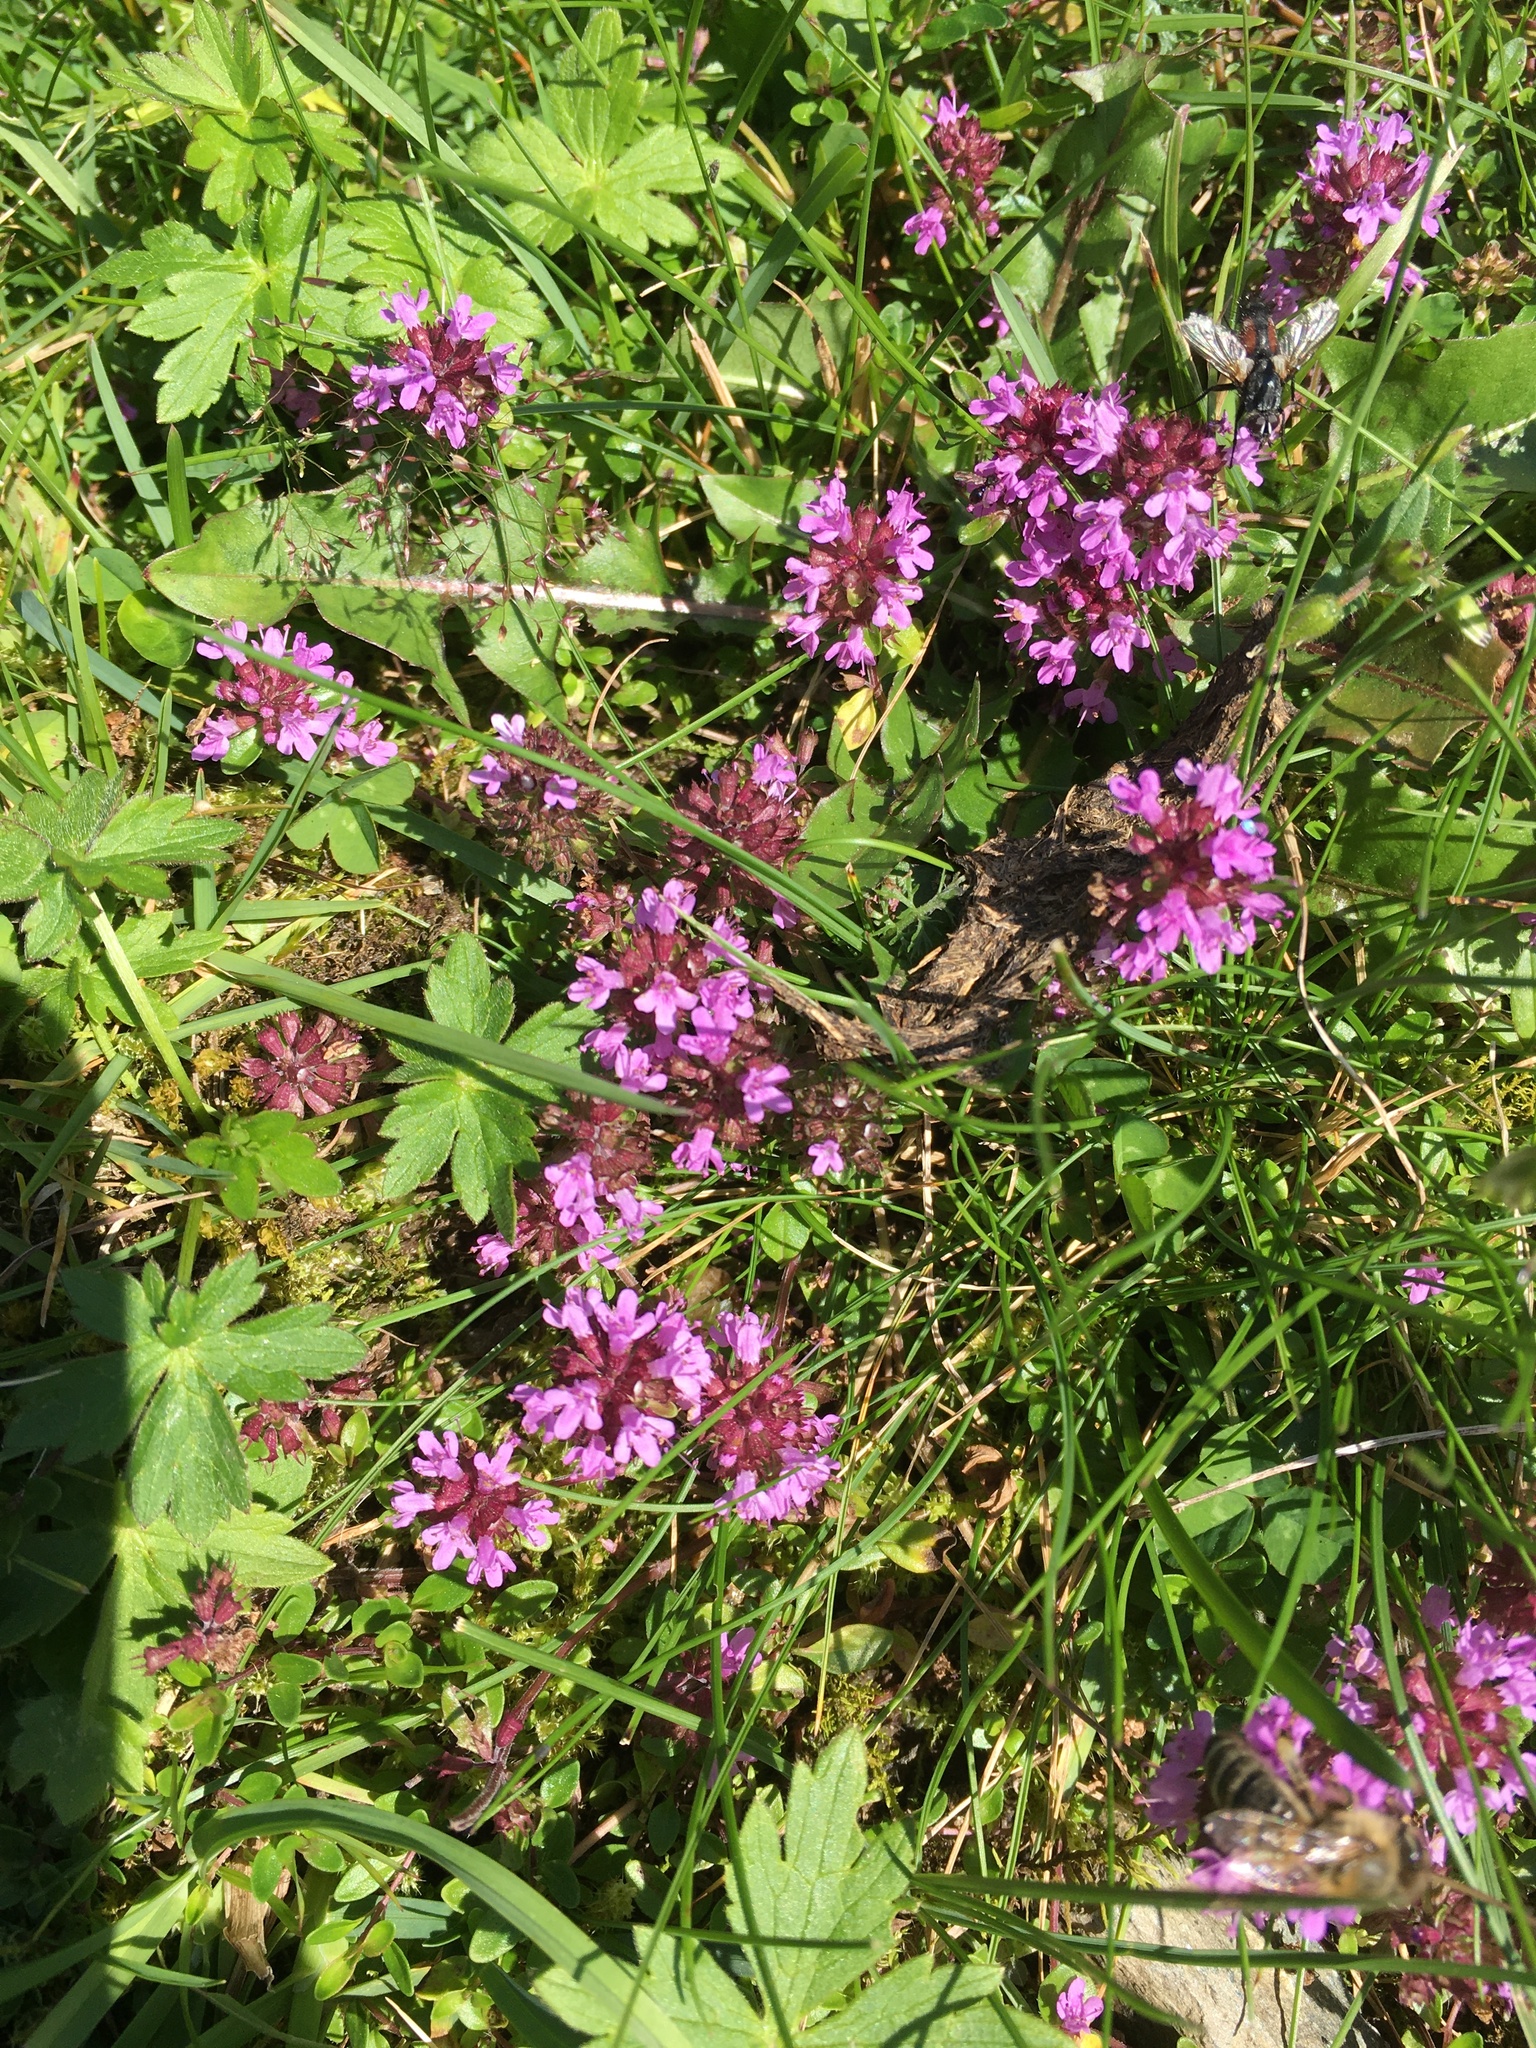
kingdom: Plantae
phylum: Tracheophyta
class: Magnoliopsida
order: Lamiales
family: Lamiaceae
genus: Thymus
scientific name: Thymus pulegioides
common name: Large thyme
